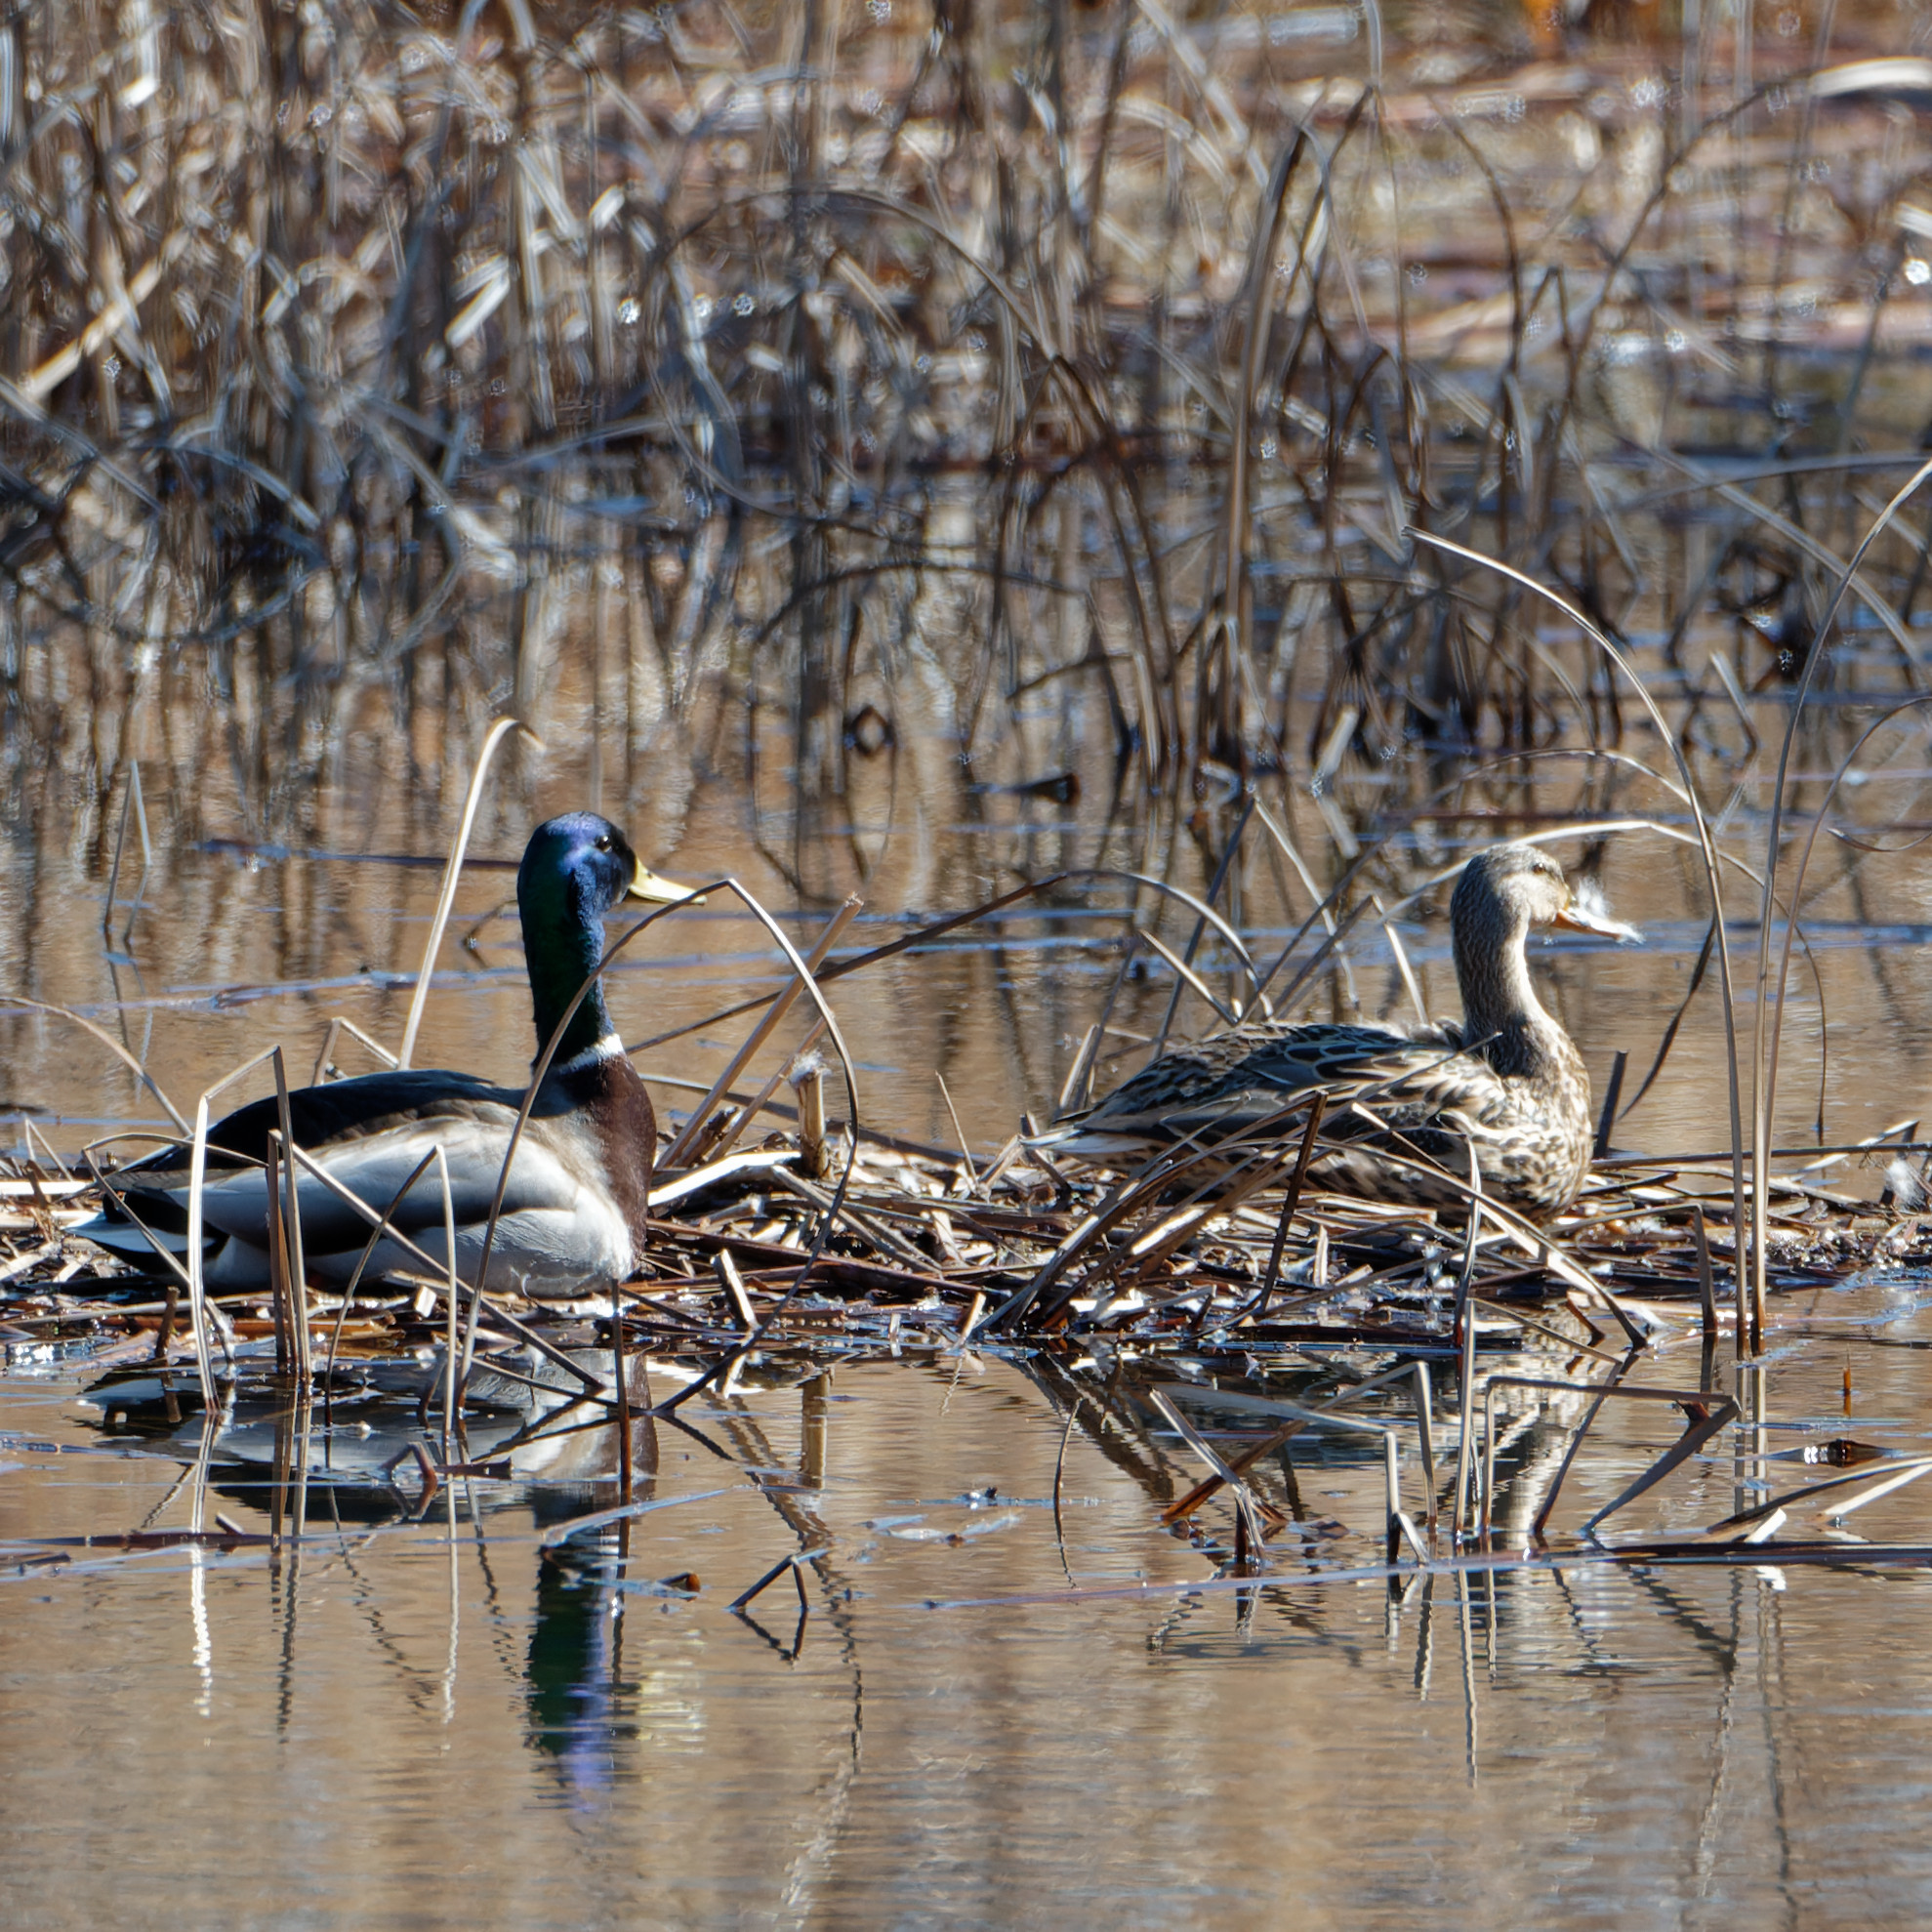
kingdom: Animalia
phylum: Chordata
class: Aves
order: Anseriformes
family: Anatidae
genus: Anas
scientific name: Anas platyrhynchos
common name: Mallard
